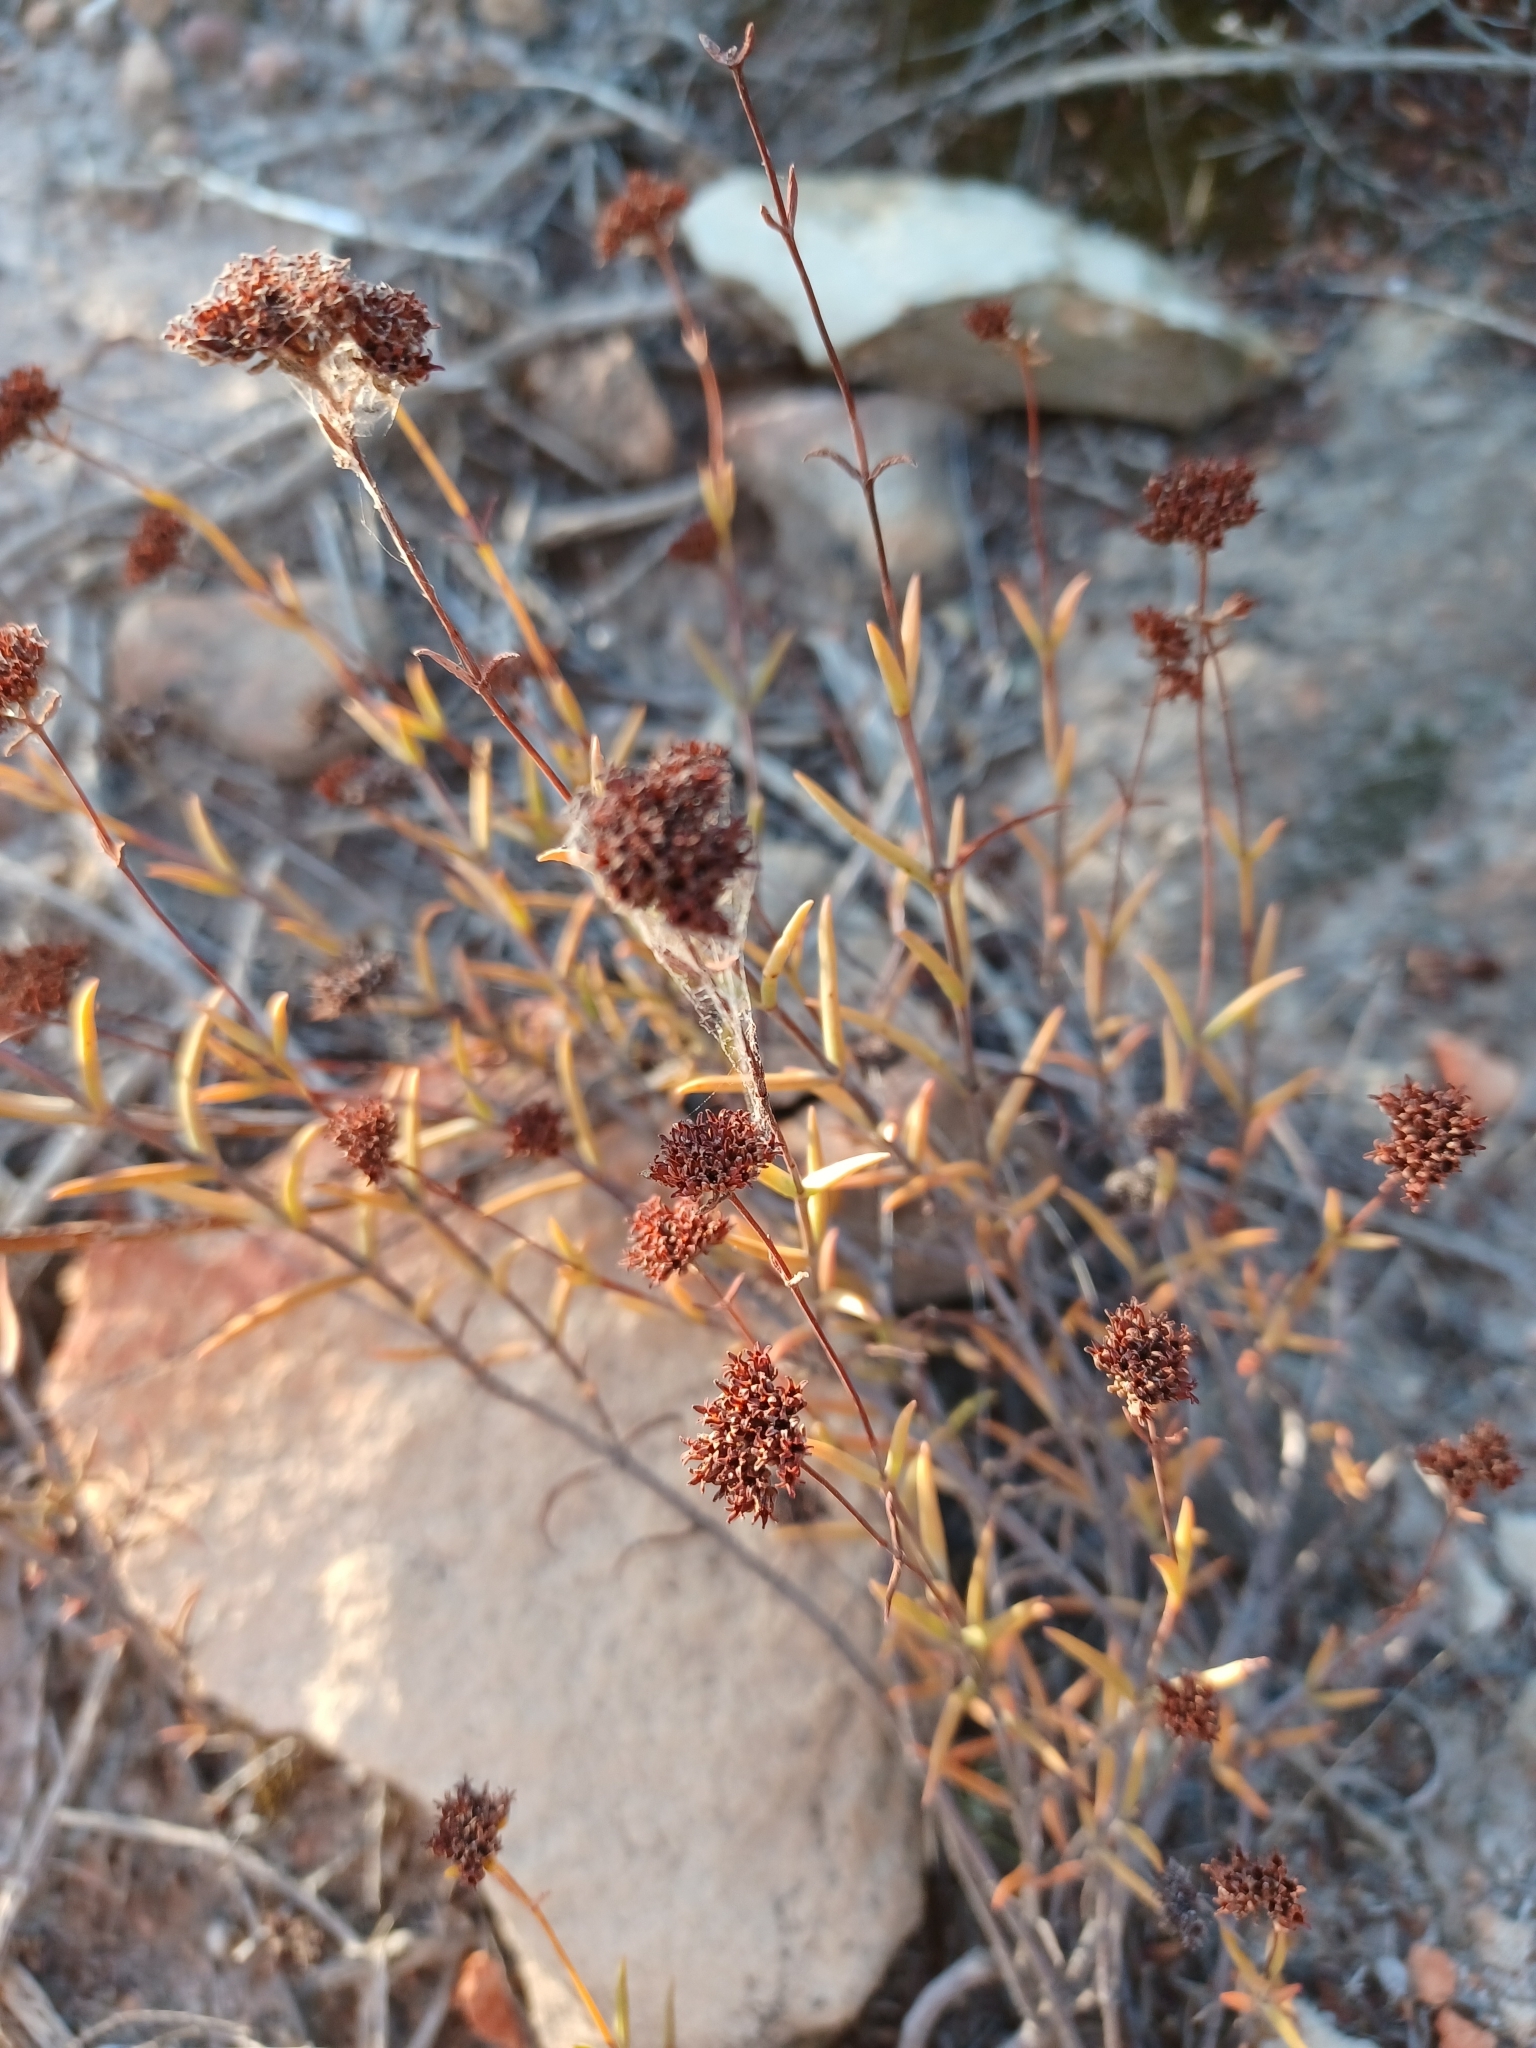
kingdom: Plantae
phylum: Tracheophyta
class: Magnoliopsida
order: Saxifragales
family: Crassulaceae
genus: Crassula
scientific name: Crassula subulata
